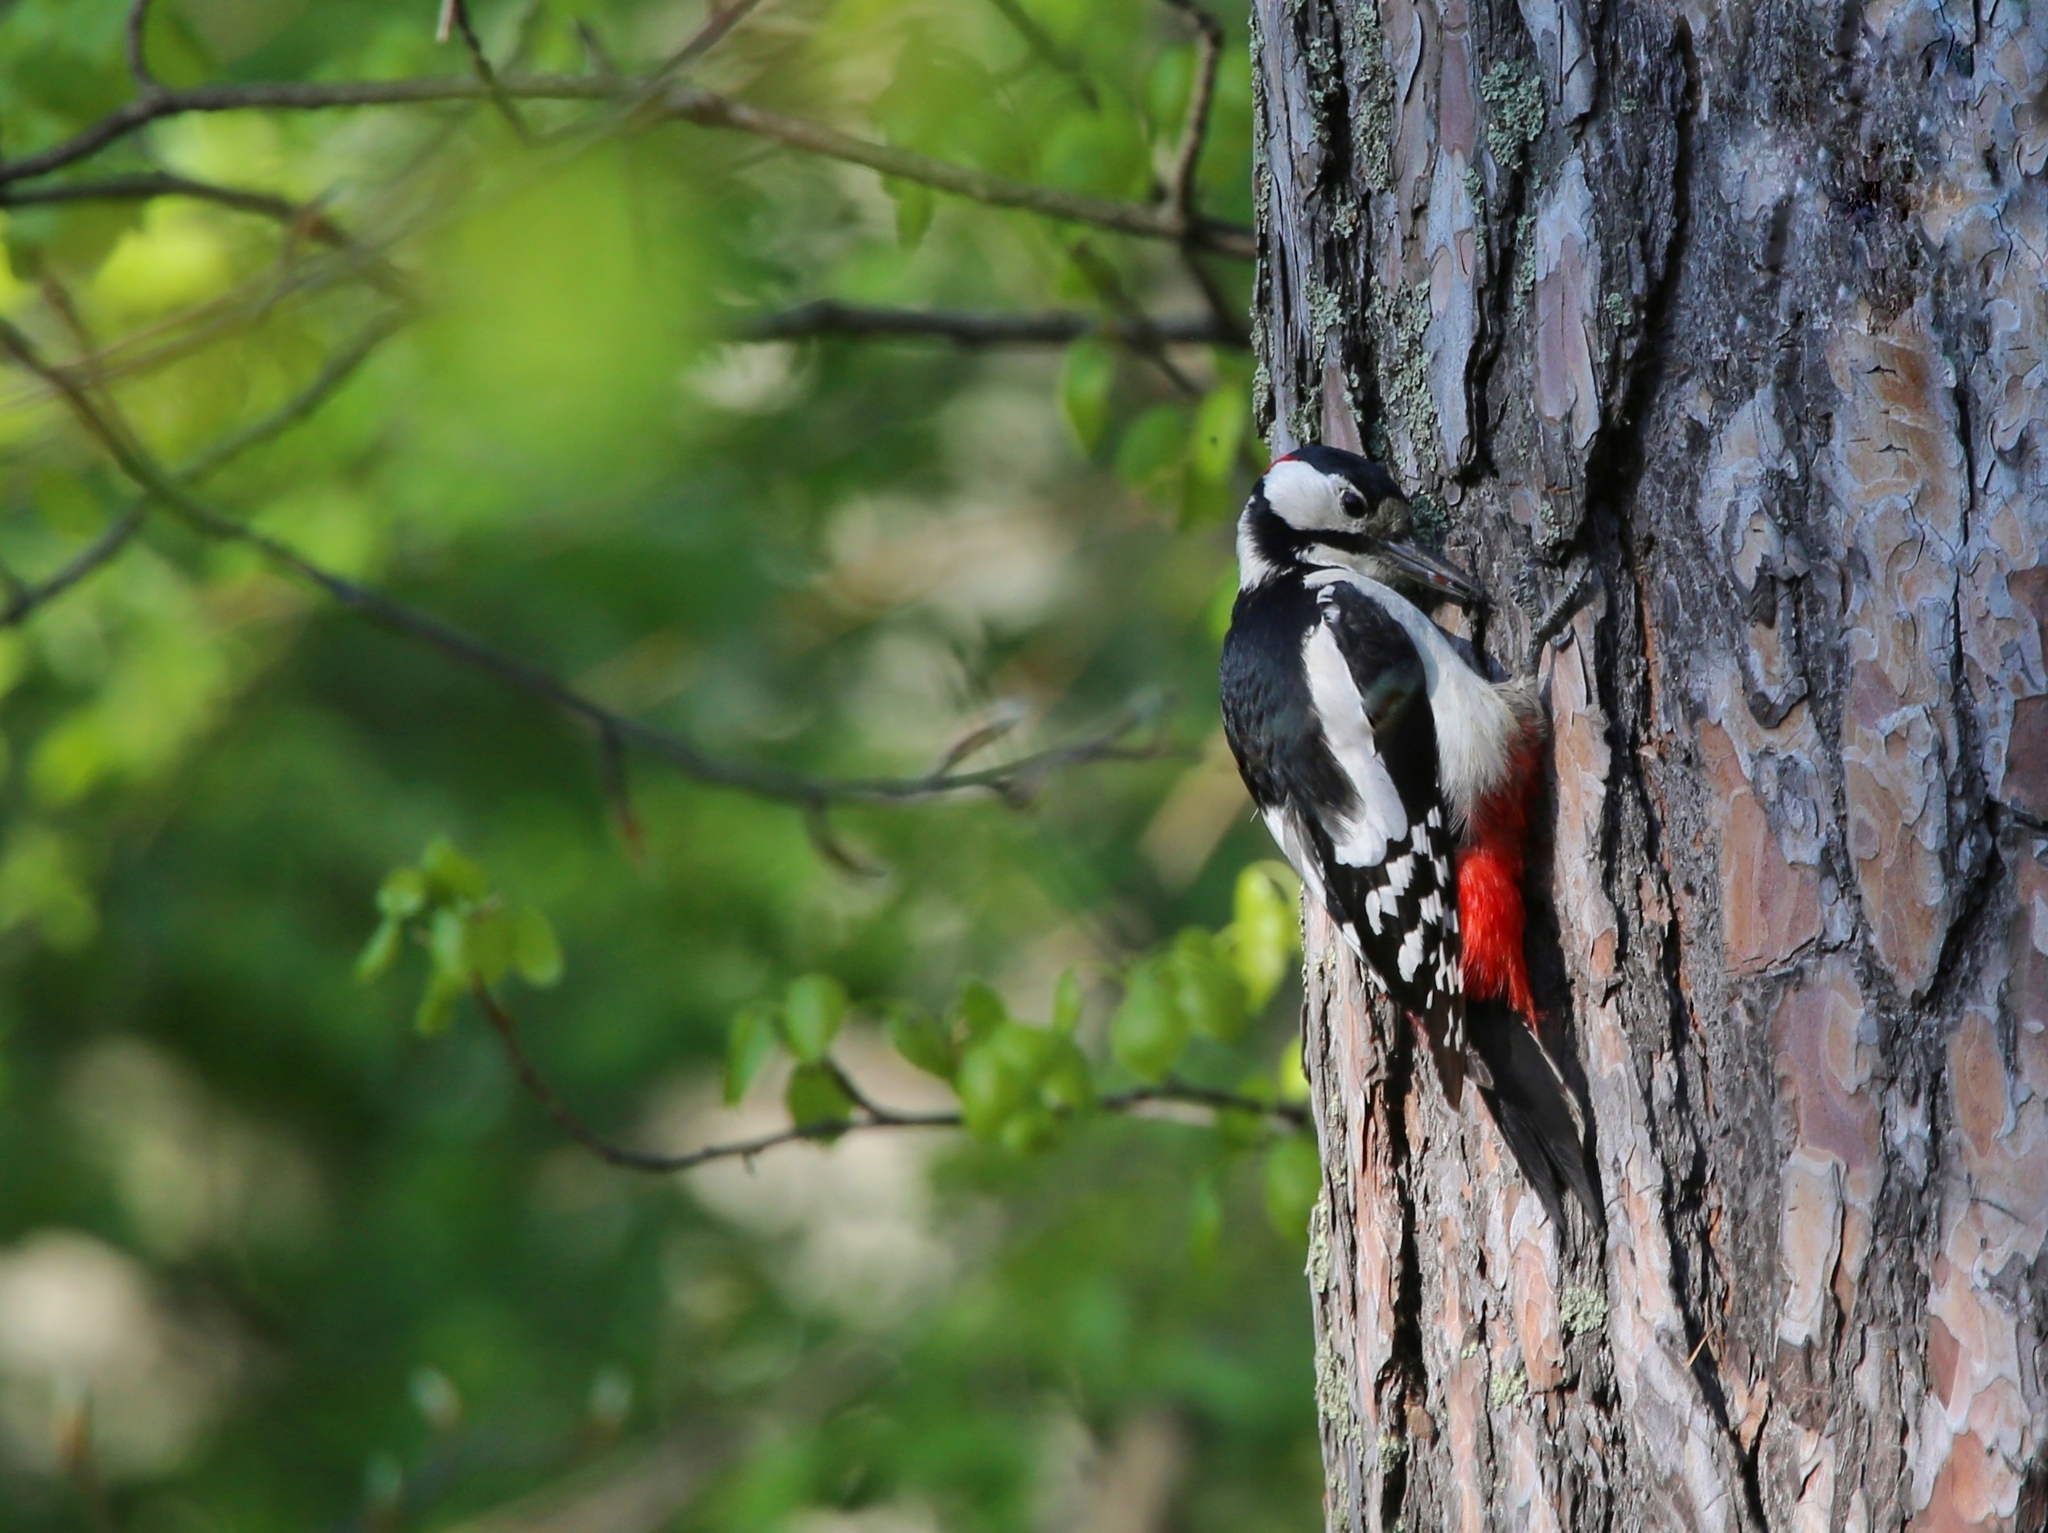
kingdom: Animalia
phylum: Chordata
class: Aves
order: Piciformes
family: Picidae
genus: Dendrocopos
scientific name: Dendrocopos major
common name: Great spotted woodpecker
